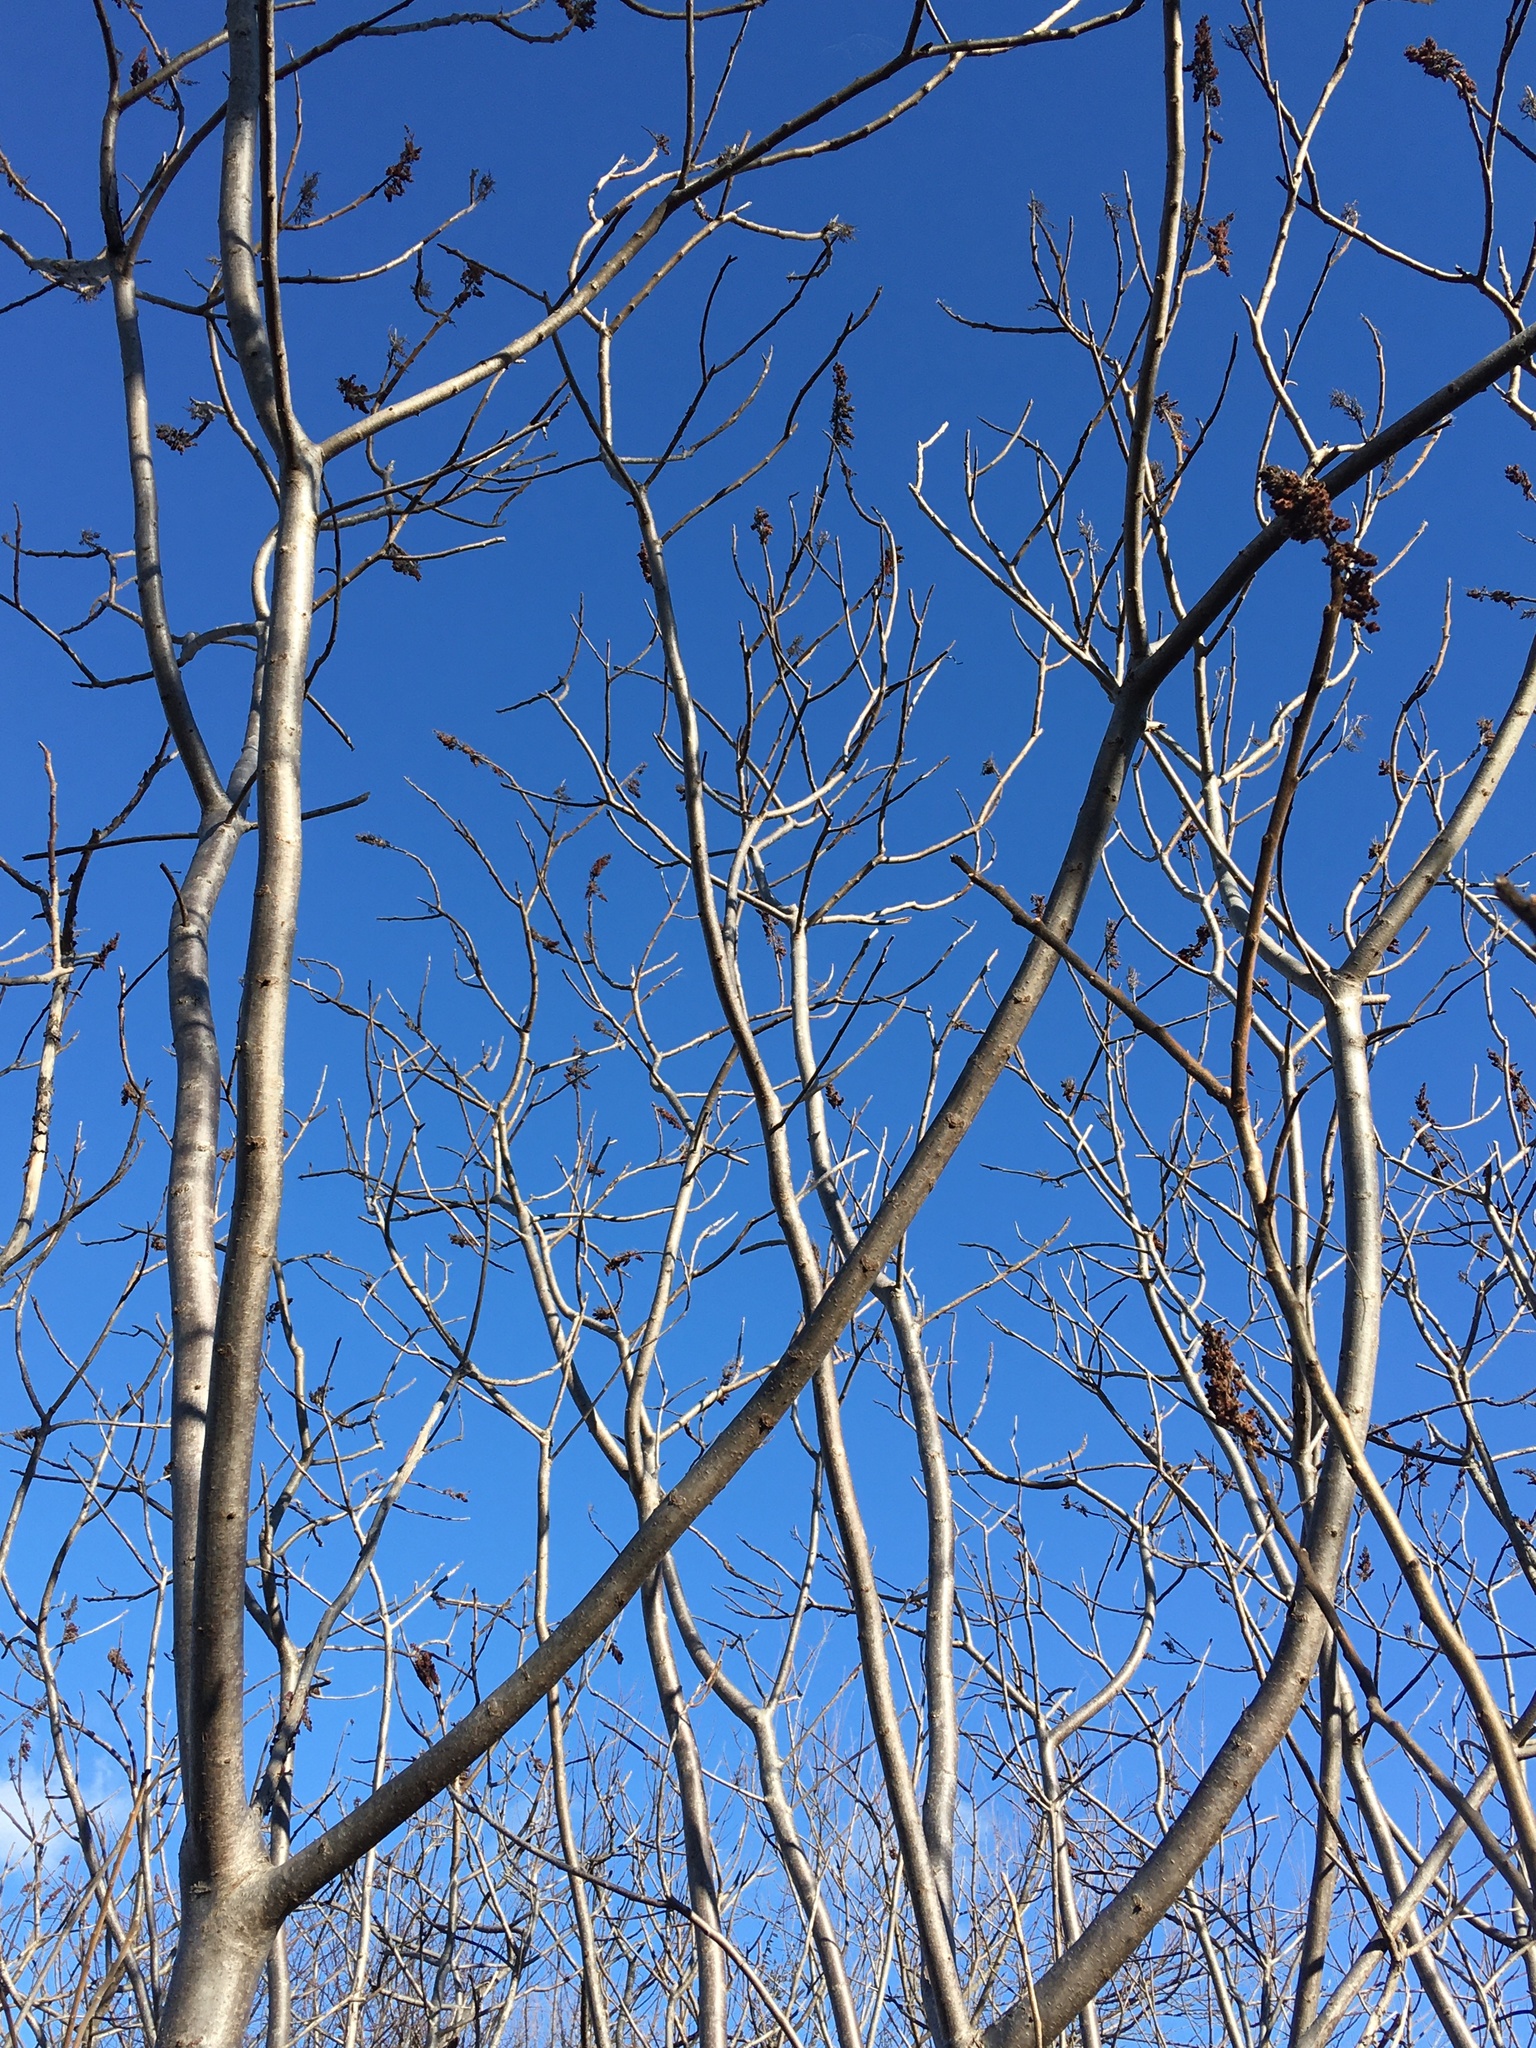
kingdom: Plantae
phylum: Tracheophyta
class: Magnoliopsida
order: Sapindales
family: Anacardiaceae
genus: Rhus
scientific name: Rhus copallina
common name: Shining sumac
